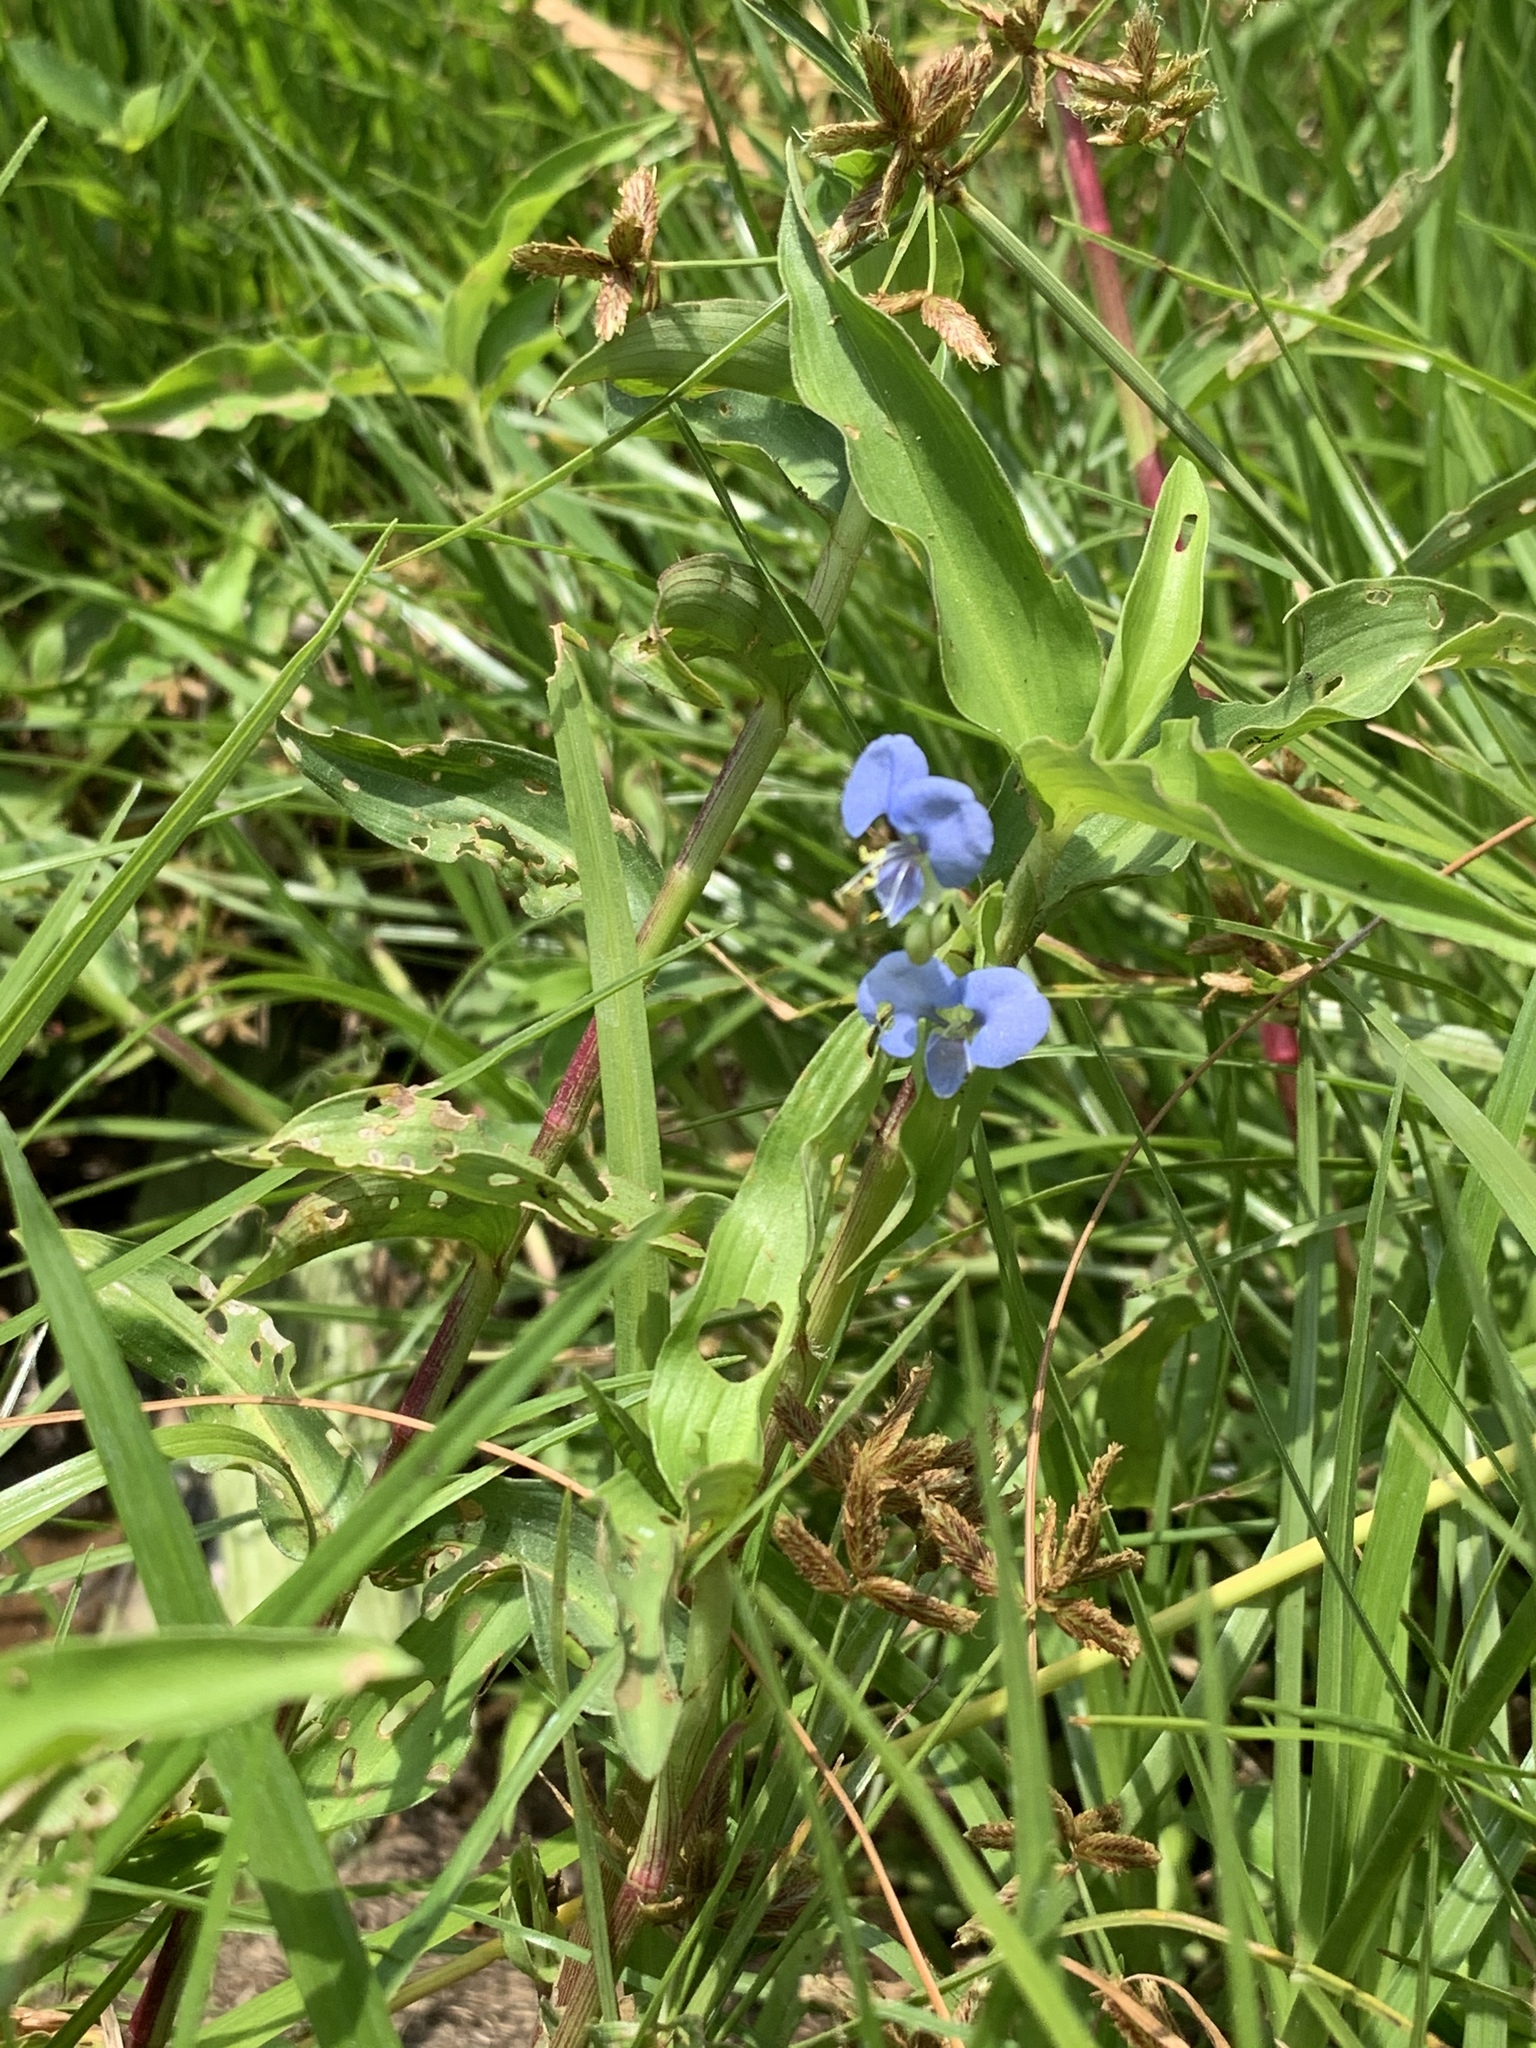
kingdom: Plantae
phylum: Tracheophyta
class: Liliopsida
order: Commelinales
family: Commelinaceae
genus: Commelina
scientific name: Commelina diffusa
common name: Climbing dayflower
